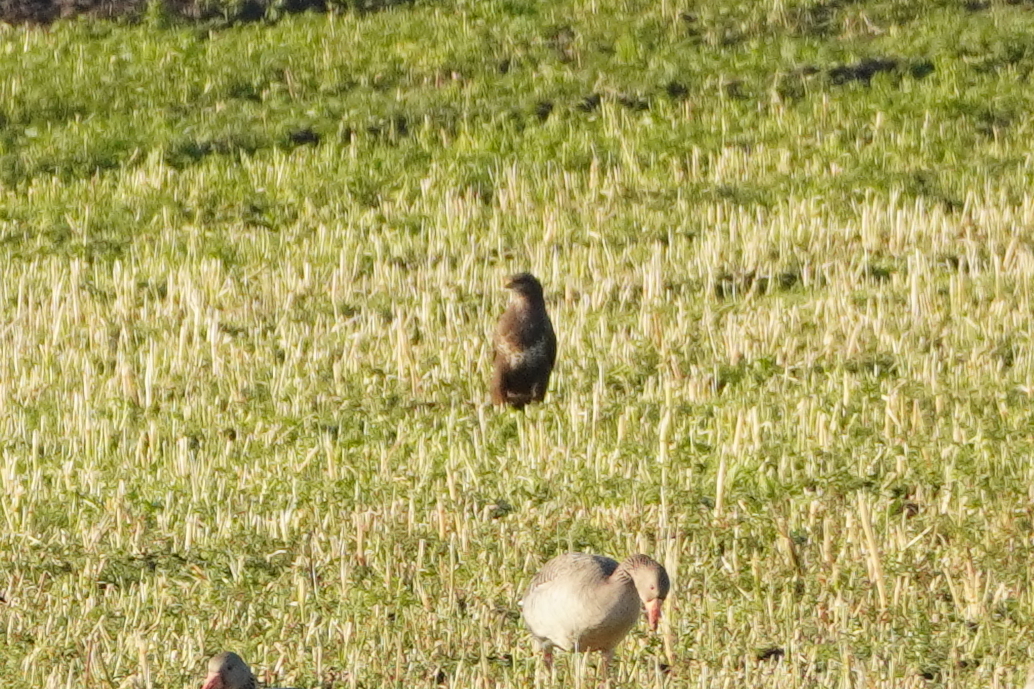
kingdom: Animalia
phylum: Chordata
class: Aves
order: Accipitriformes
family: Accipitridae
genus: Buteo
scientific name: Buteo buteo
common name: Common buzzard
